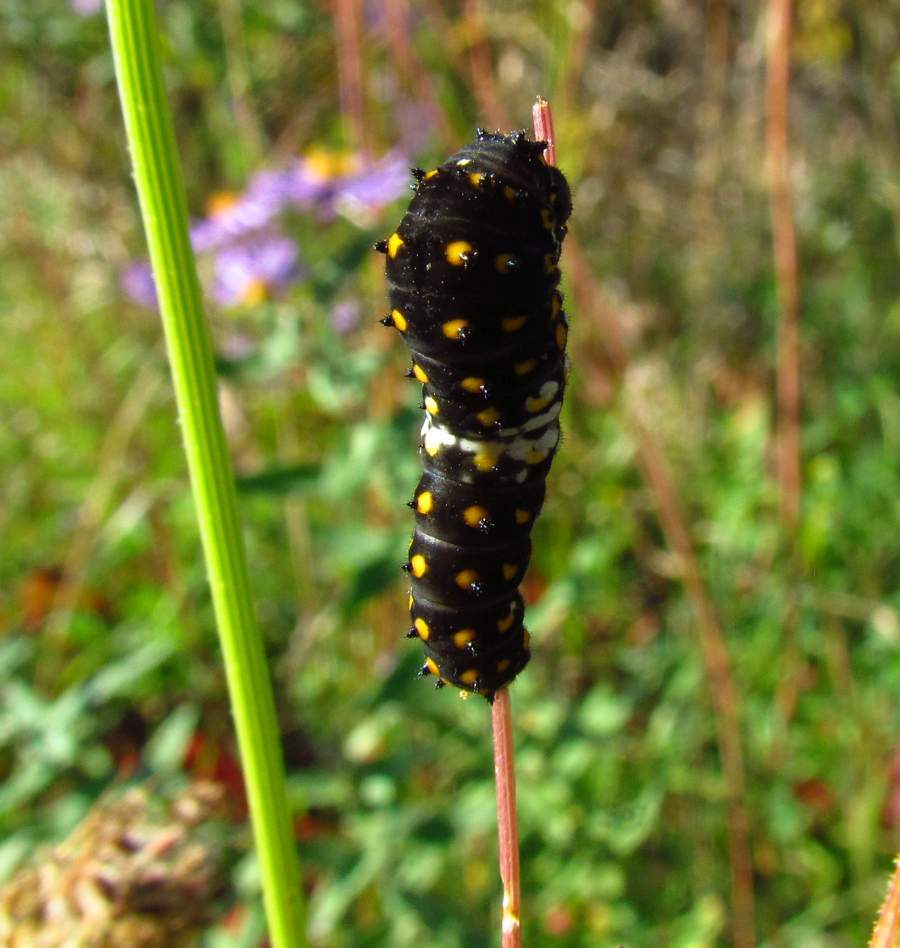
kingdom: Animalia
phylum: Arthropoda
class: Insecta
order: Lepidoptera
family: Papilionidae
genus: Papilio
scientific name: Papilio polyxenes
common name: Black swallowtail
